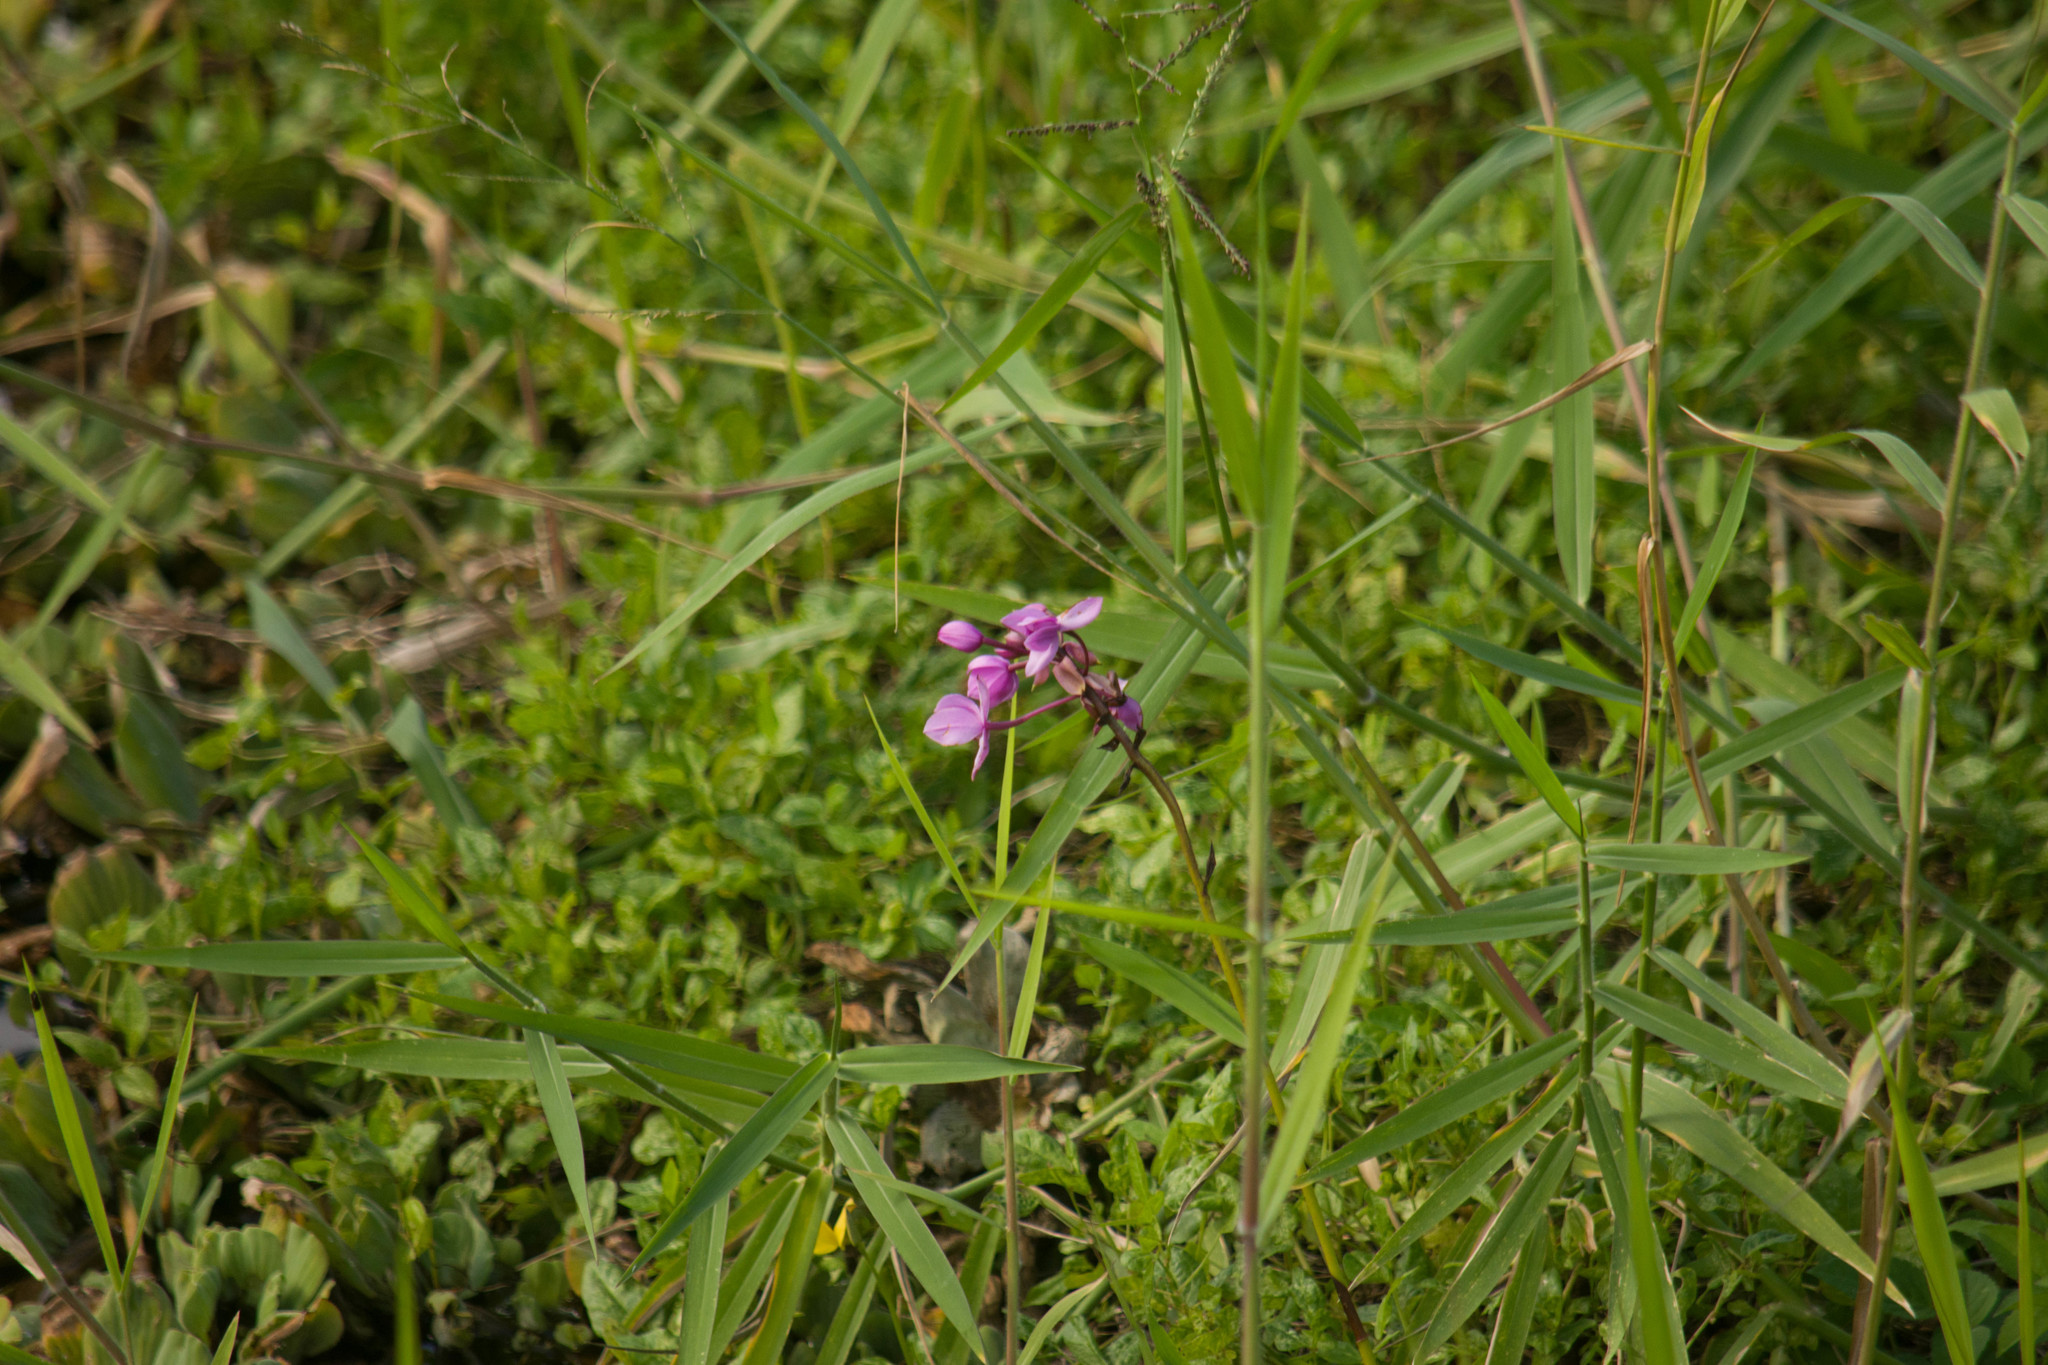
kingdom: Plantae
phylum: Tracheophyta
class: Liliopsida
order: Asparagales
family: Orchidaceae
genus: Spathoglottis
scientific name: Spathoglottis plicata
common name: Philippine ground orchid
